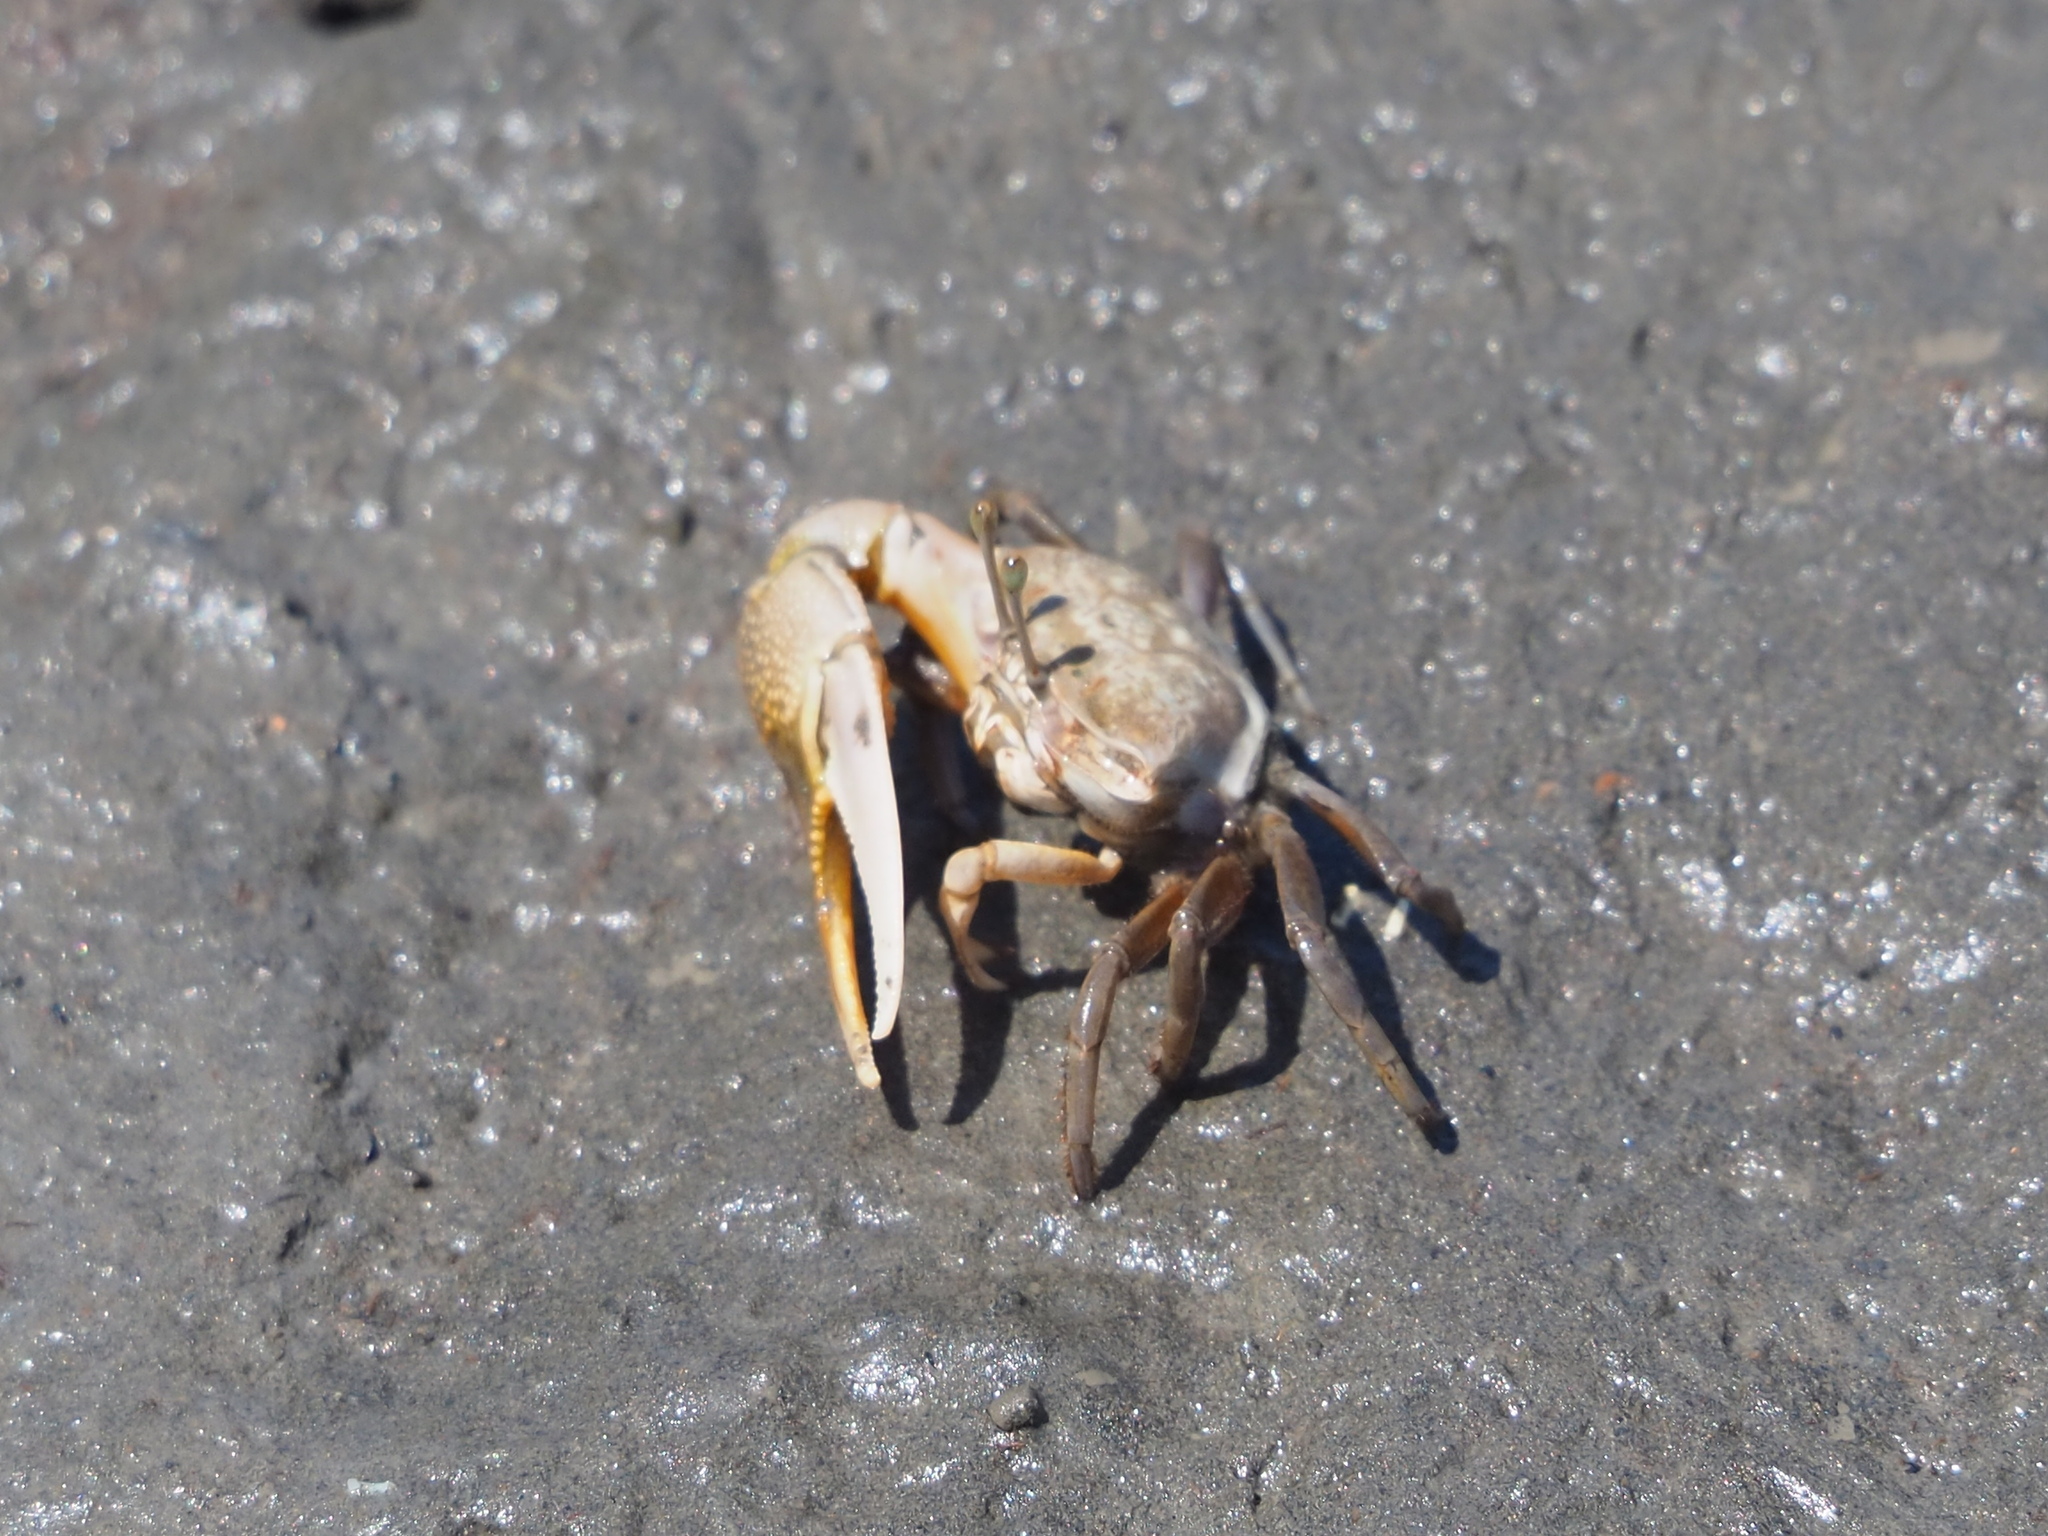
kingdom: Animalia
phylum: Arthropoda
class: Malacostraca
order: Decapoda
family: Ocypodidae
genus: Gelasimus
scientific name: Gelasimus borealis
